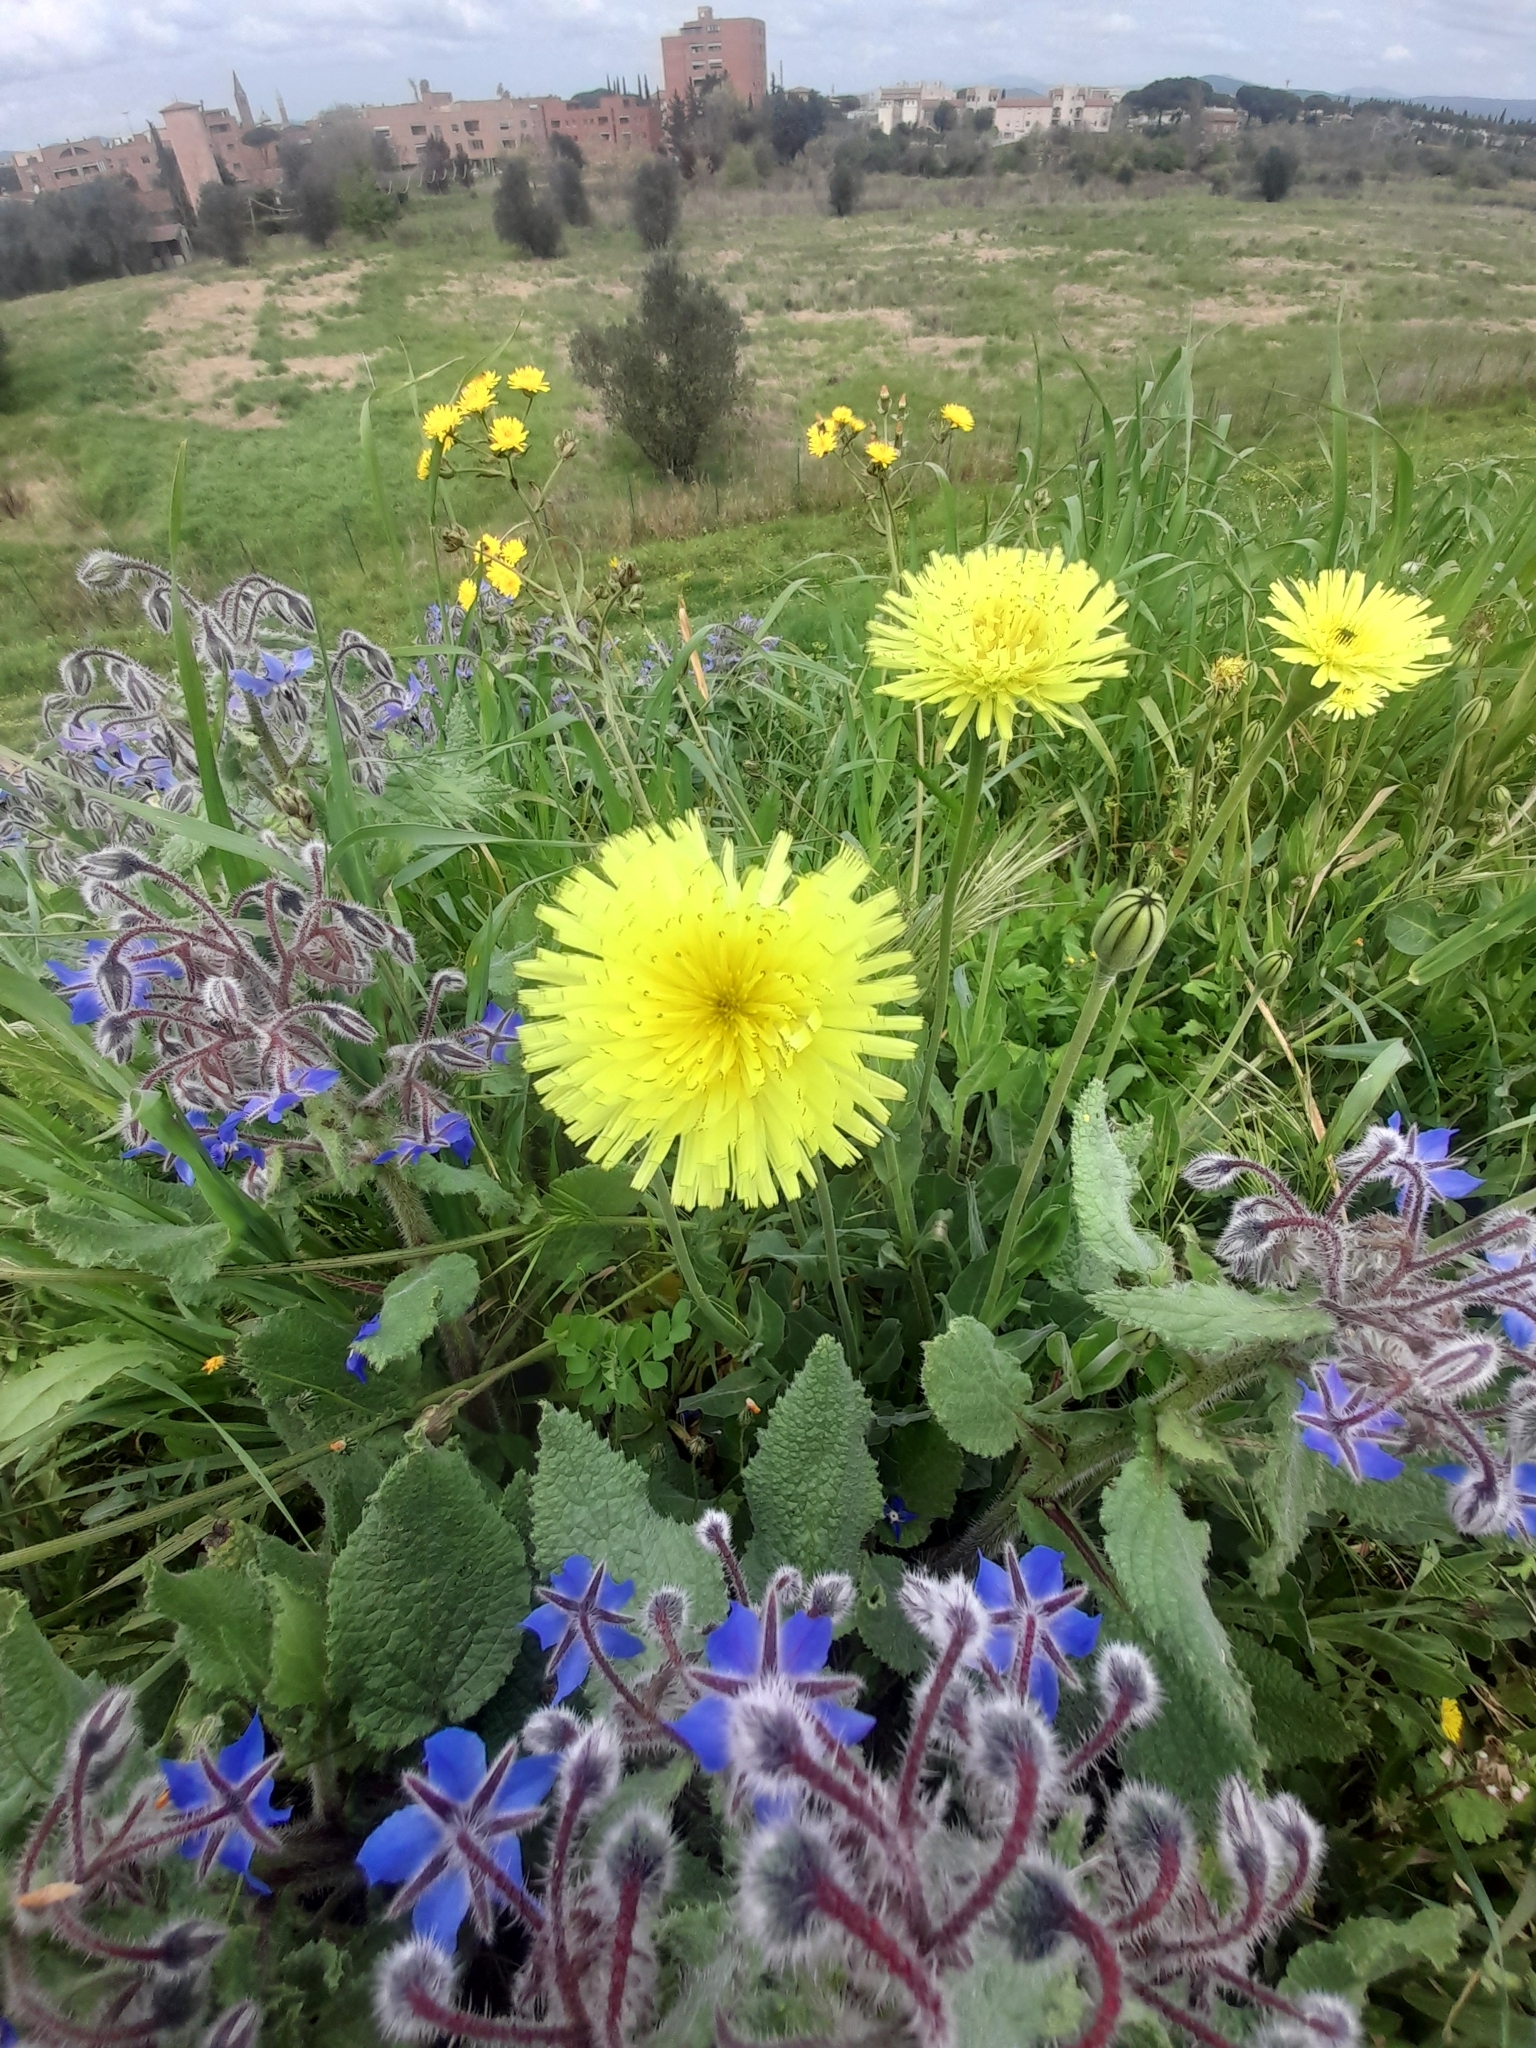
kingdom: Plantae
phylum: Tracheophyta
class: Magnoliopsida
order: Asterales
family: Asteraceae
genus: Urospermum
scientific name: Urospermum dalechampii
